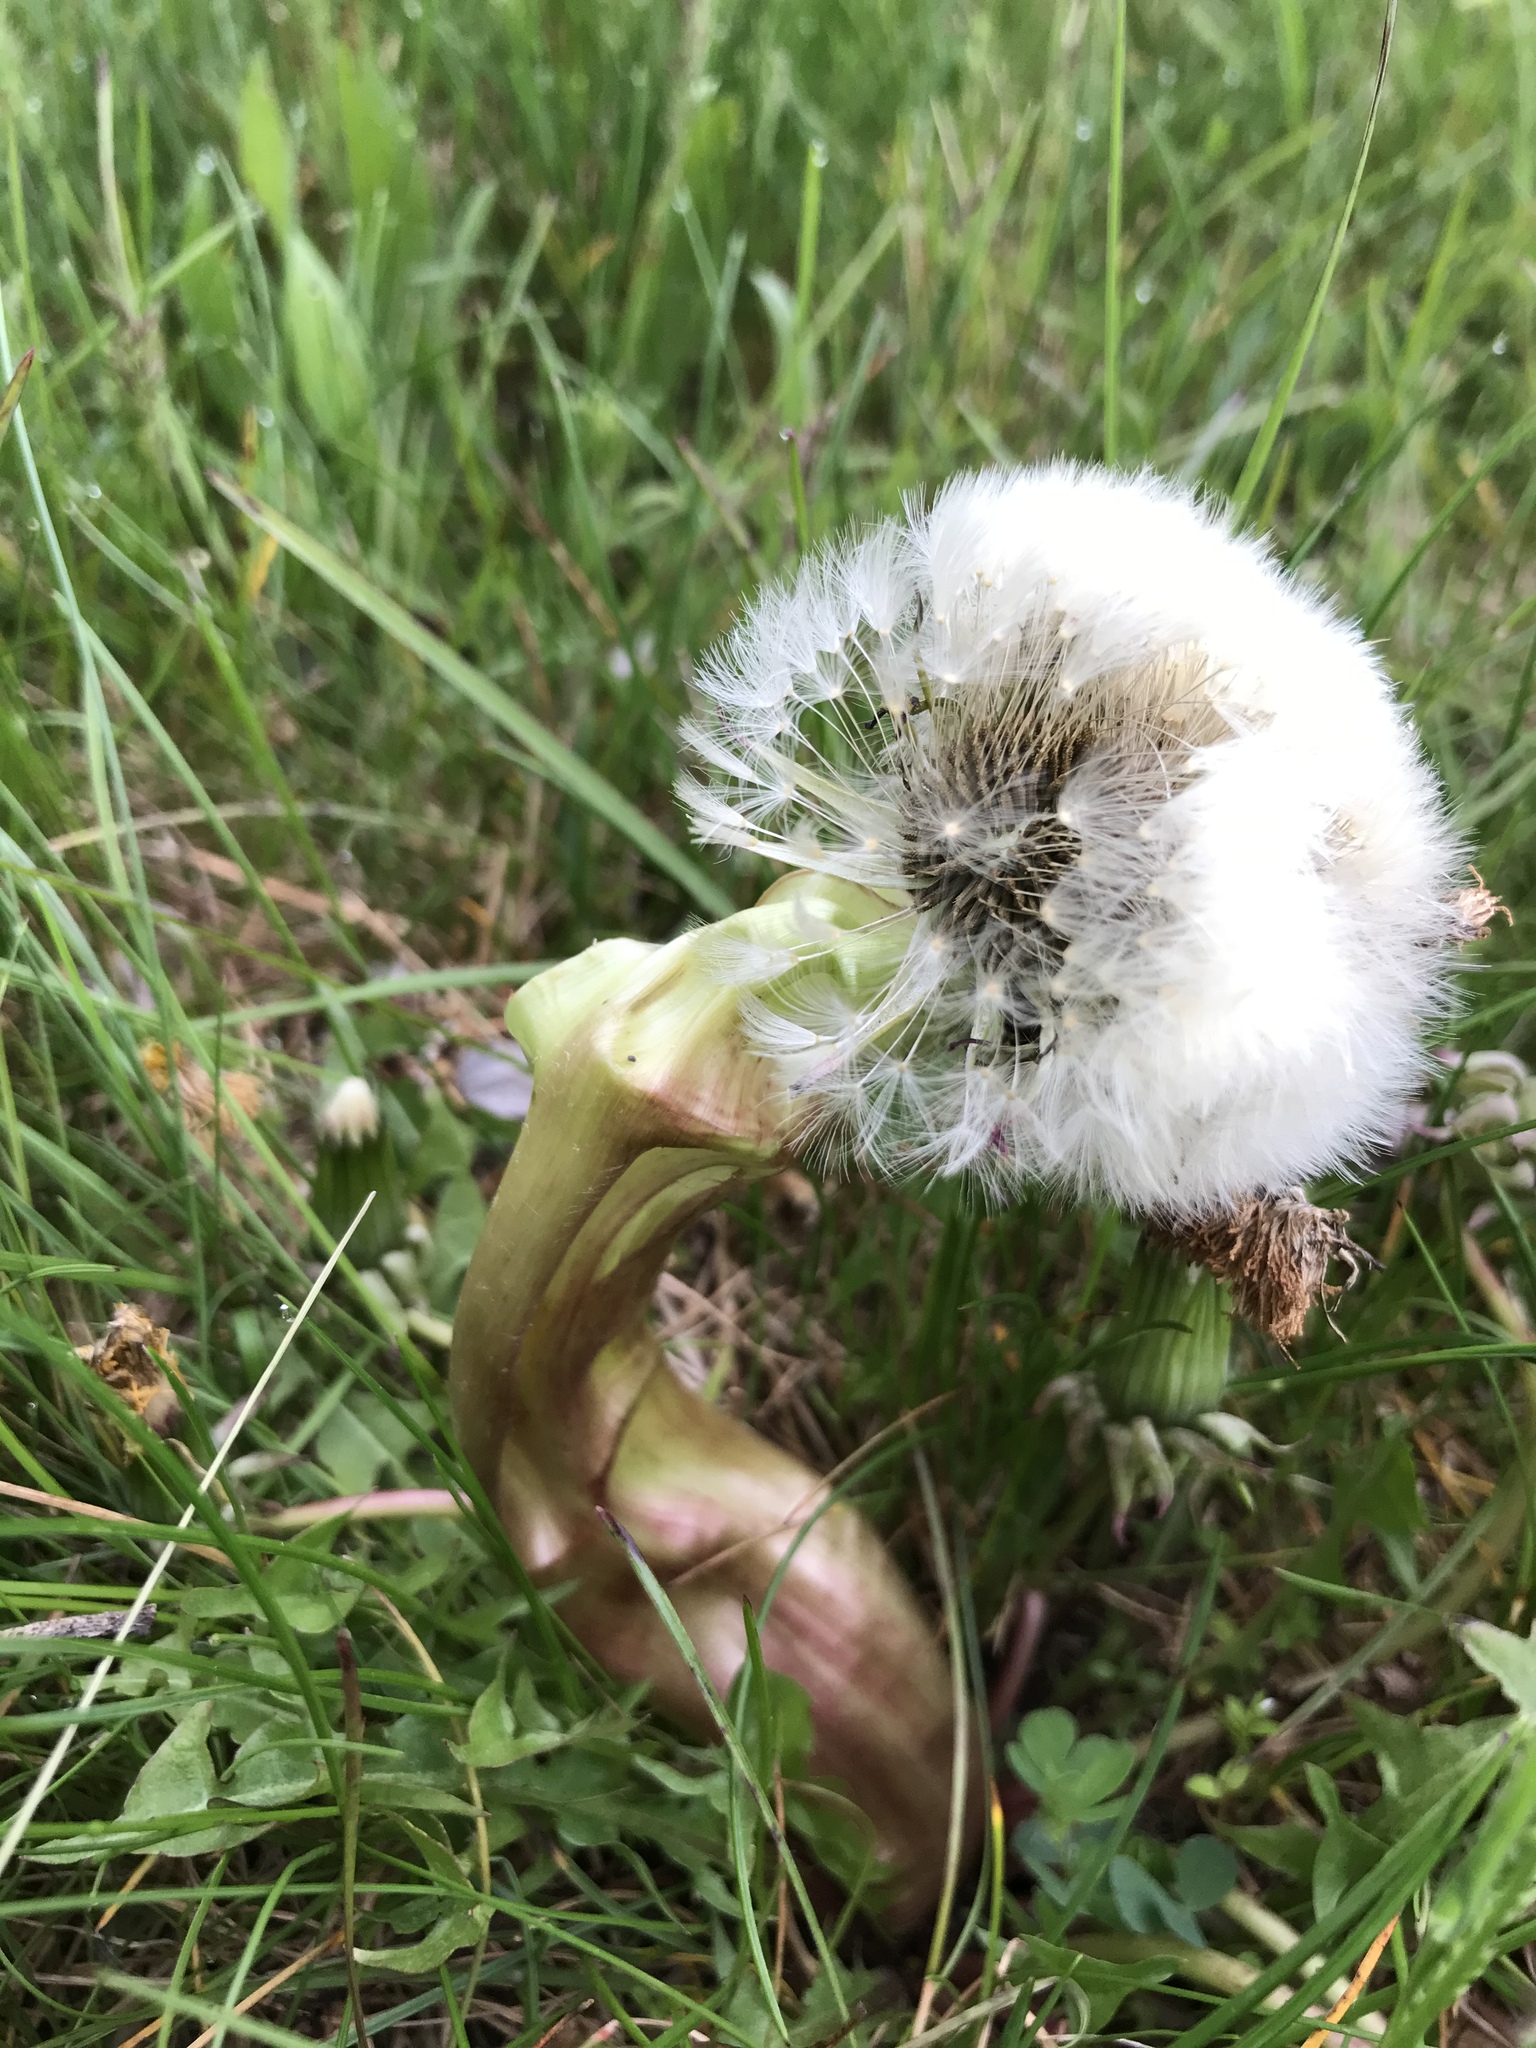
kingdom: Plantae
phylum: Tracheophyta
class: Magnoliopsida
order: Asterales
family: Asteraceae
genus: Taraxacum
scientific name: Taraxacum officinale
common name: Common dandelion
